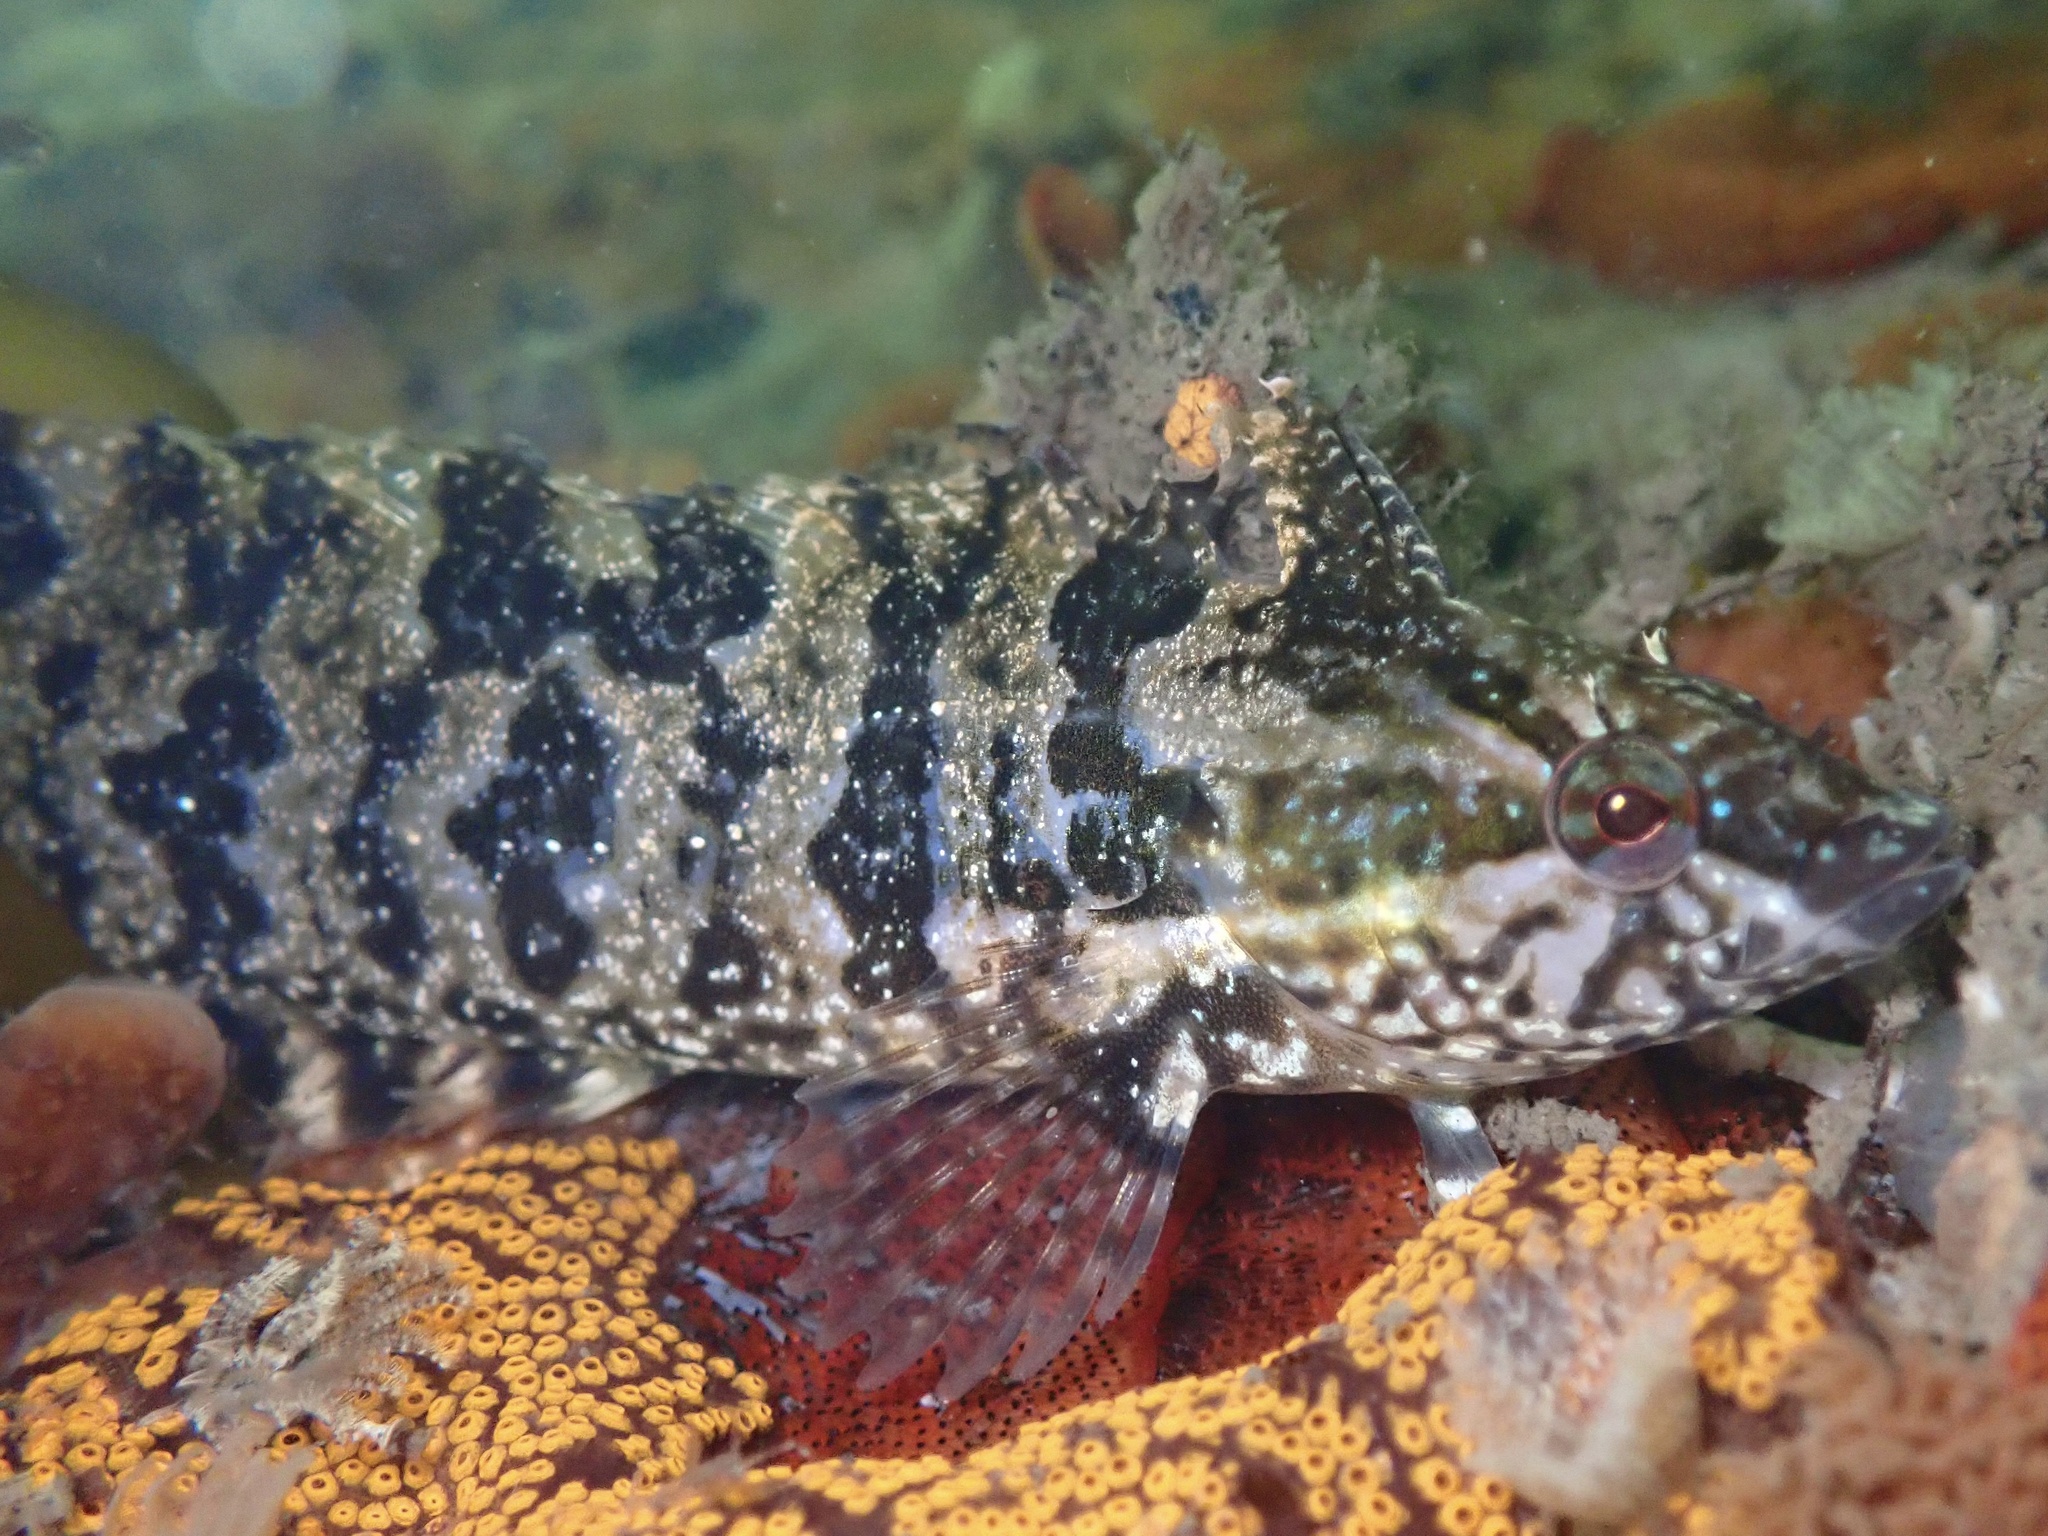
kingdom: Animalia
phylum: Chordata
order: Perciformes
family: Clinidae
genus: Gibbonsia
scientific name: Gibbonsia metzi
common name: Striped kelpfish
